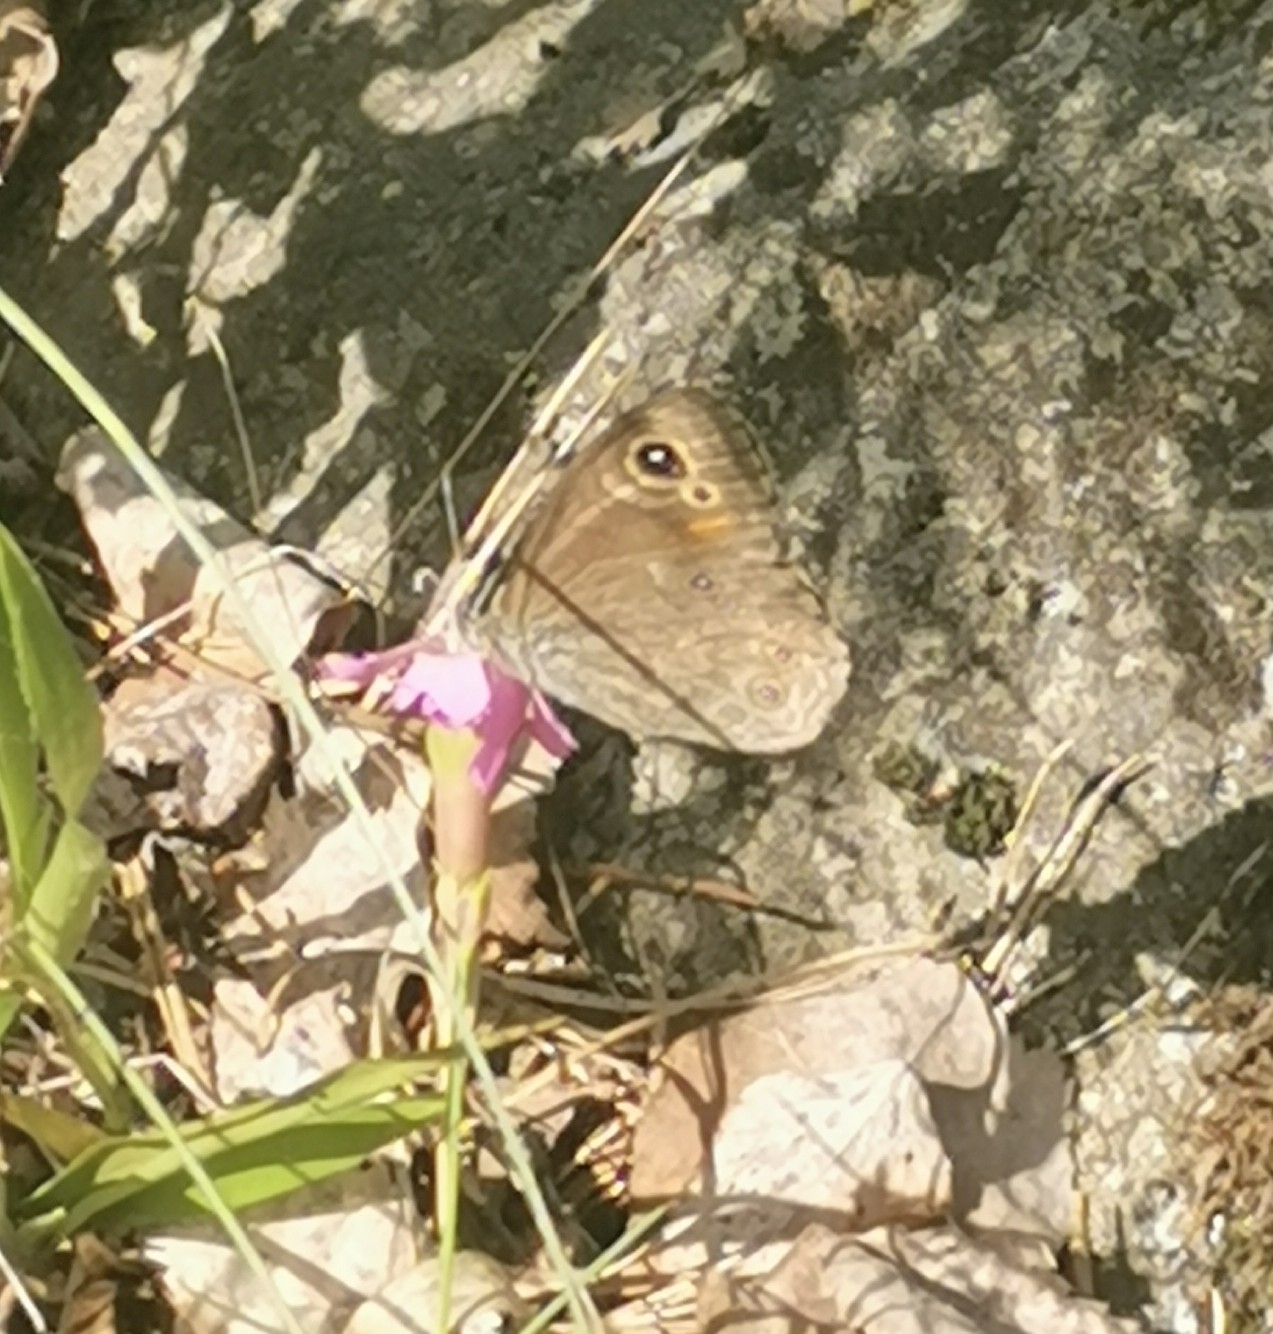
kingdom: Animalia
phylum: Arthropoda
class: Insecta
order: Lepidoptera
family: Nymphalidae
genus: Pararge
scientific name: Pararge Lasiommata maera
